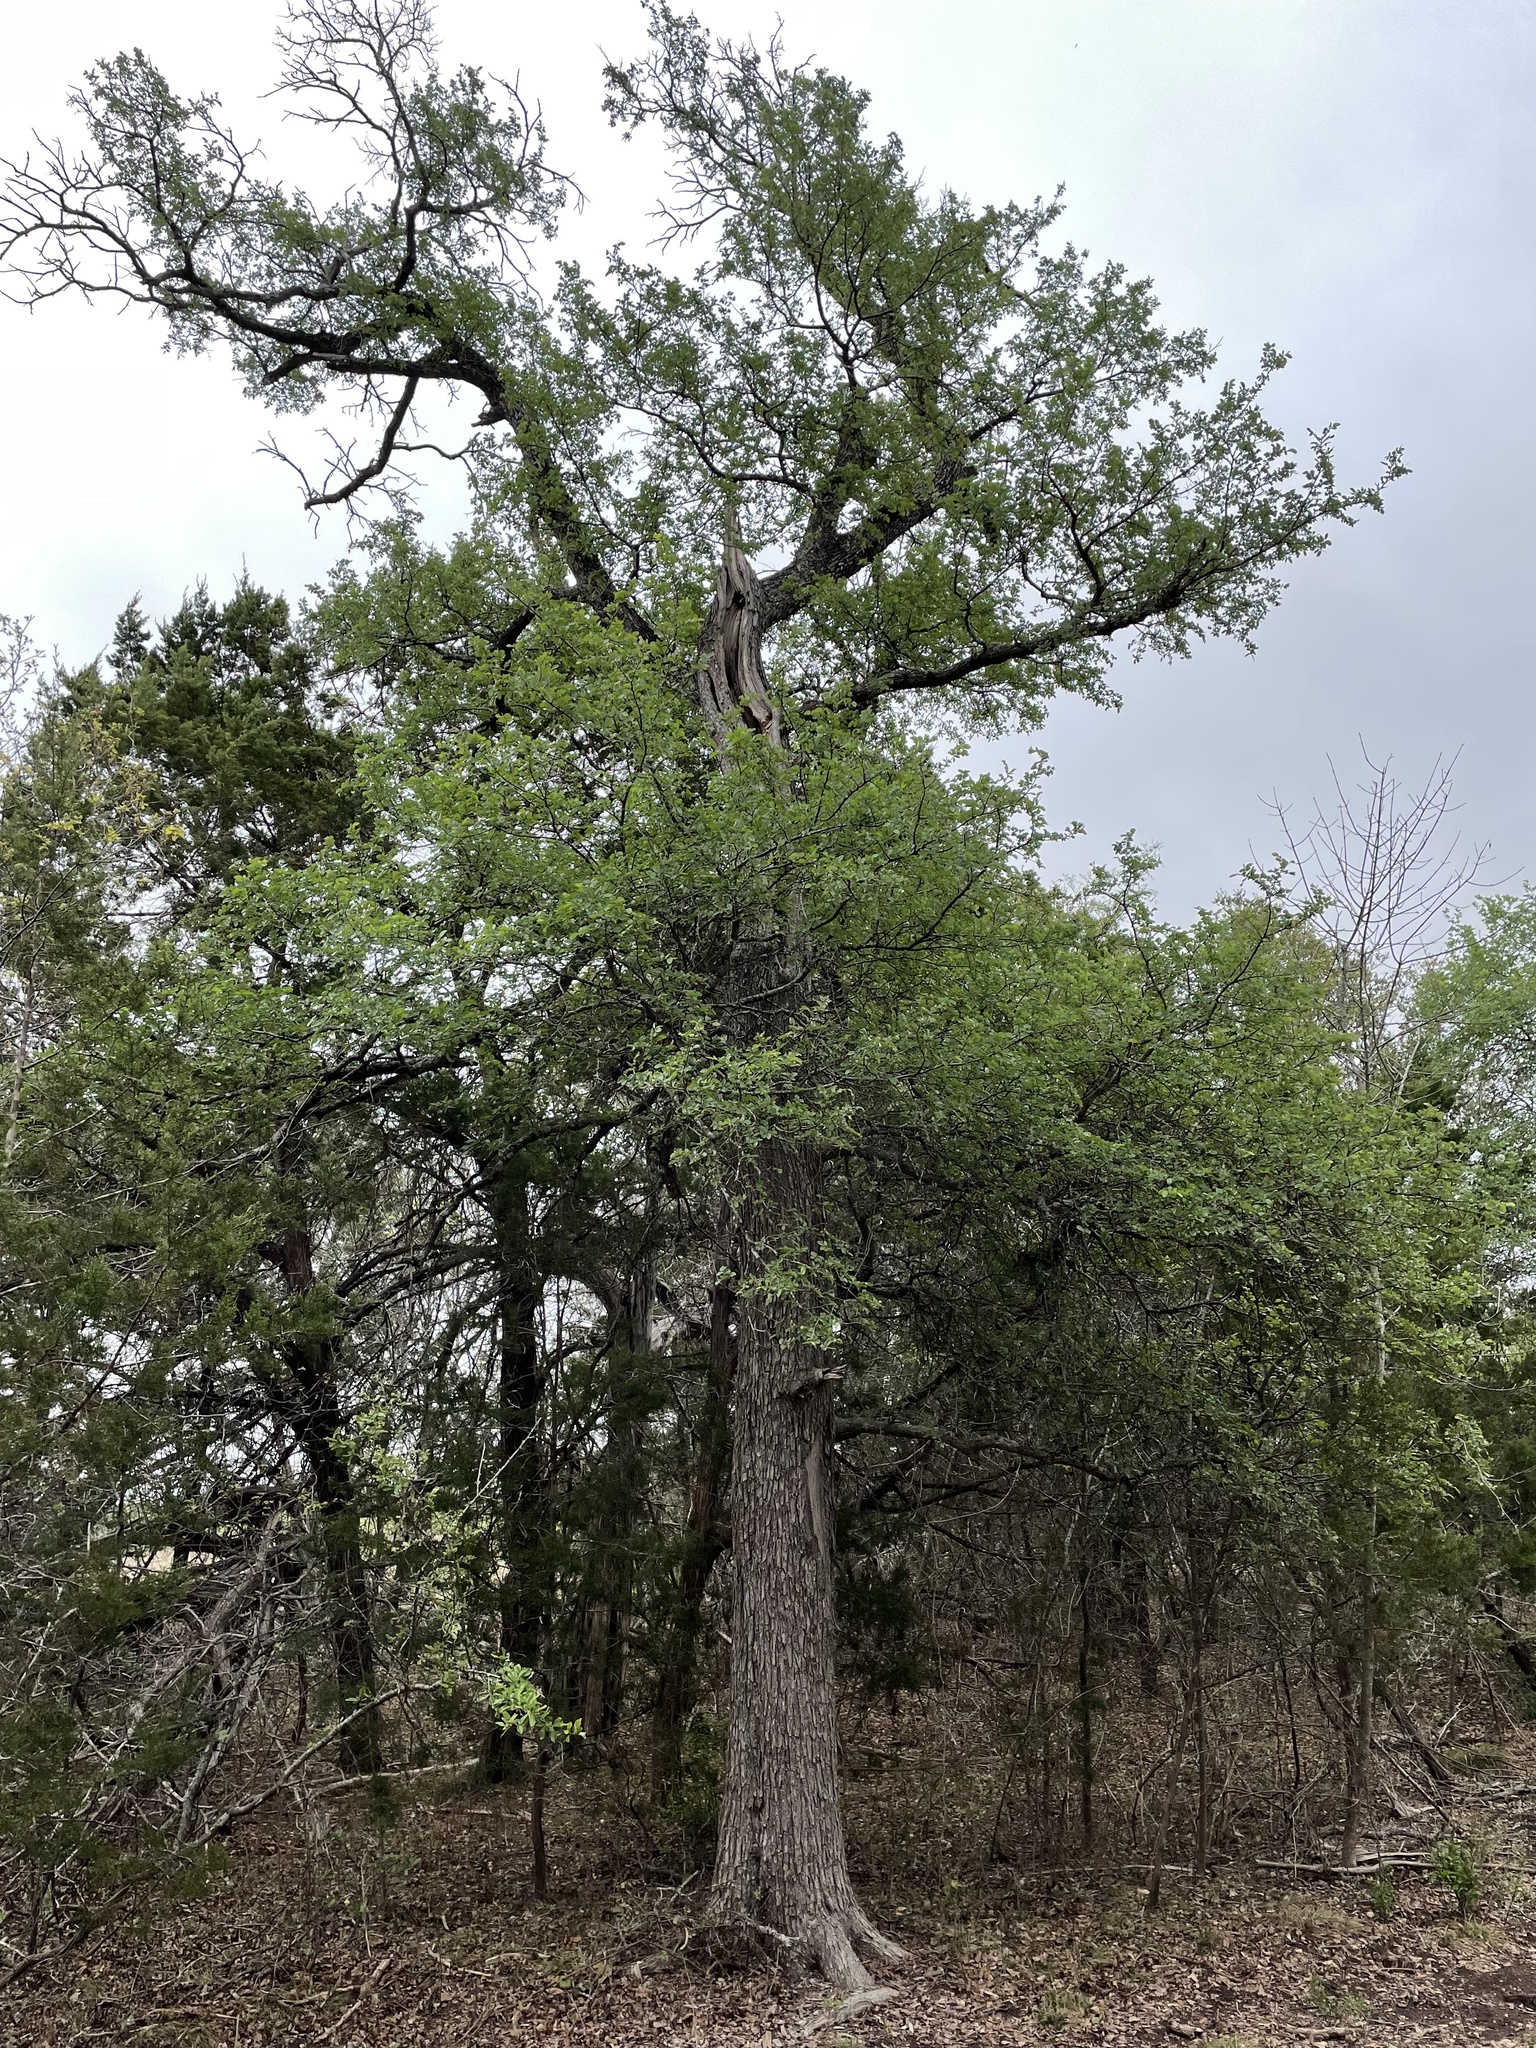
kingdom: Plantae
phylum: Tracheophyta
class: Magnoliopsida
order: Rosales
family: Ulmaceae
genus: Ulmus
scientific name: Ulmus crassifolia
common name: Basket elm
